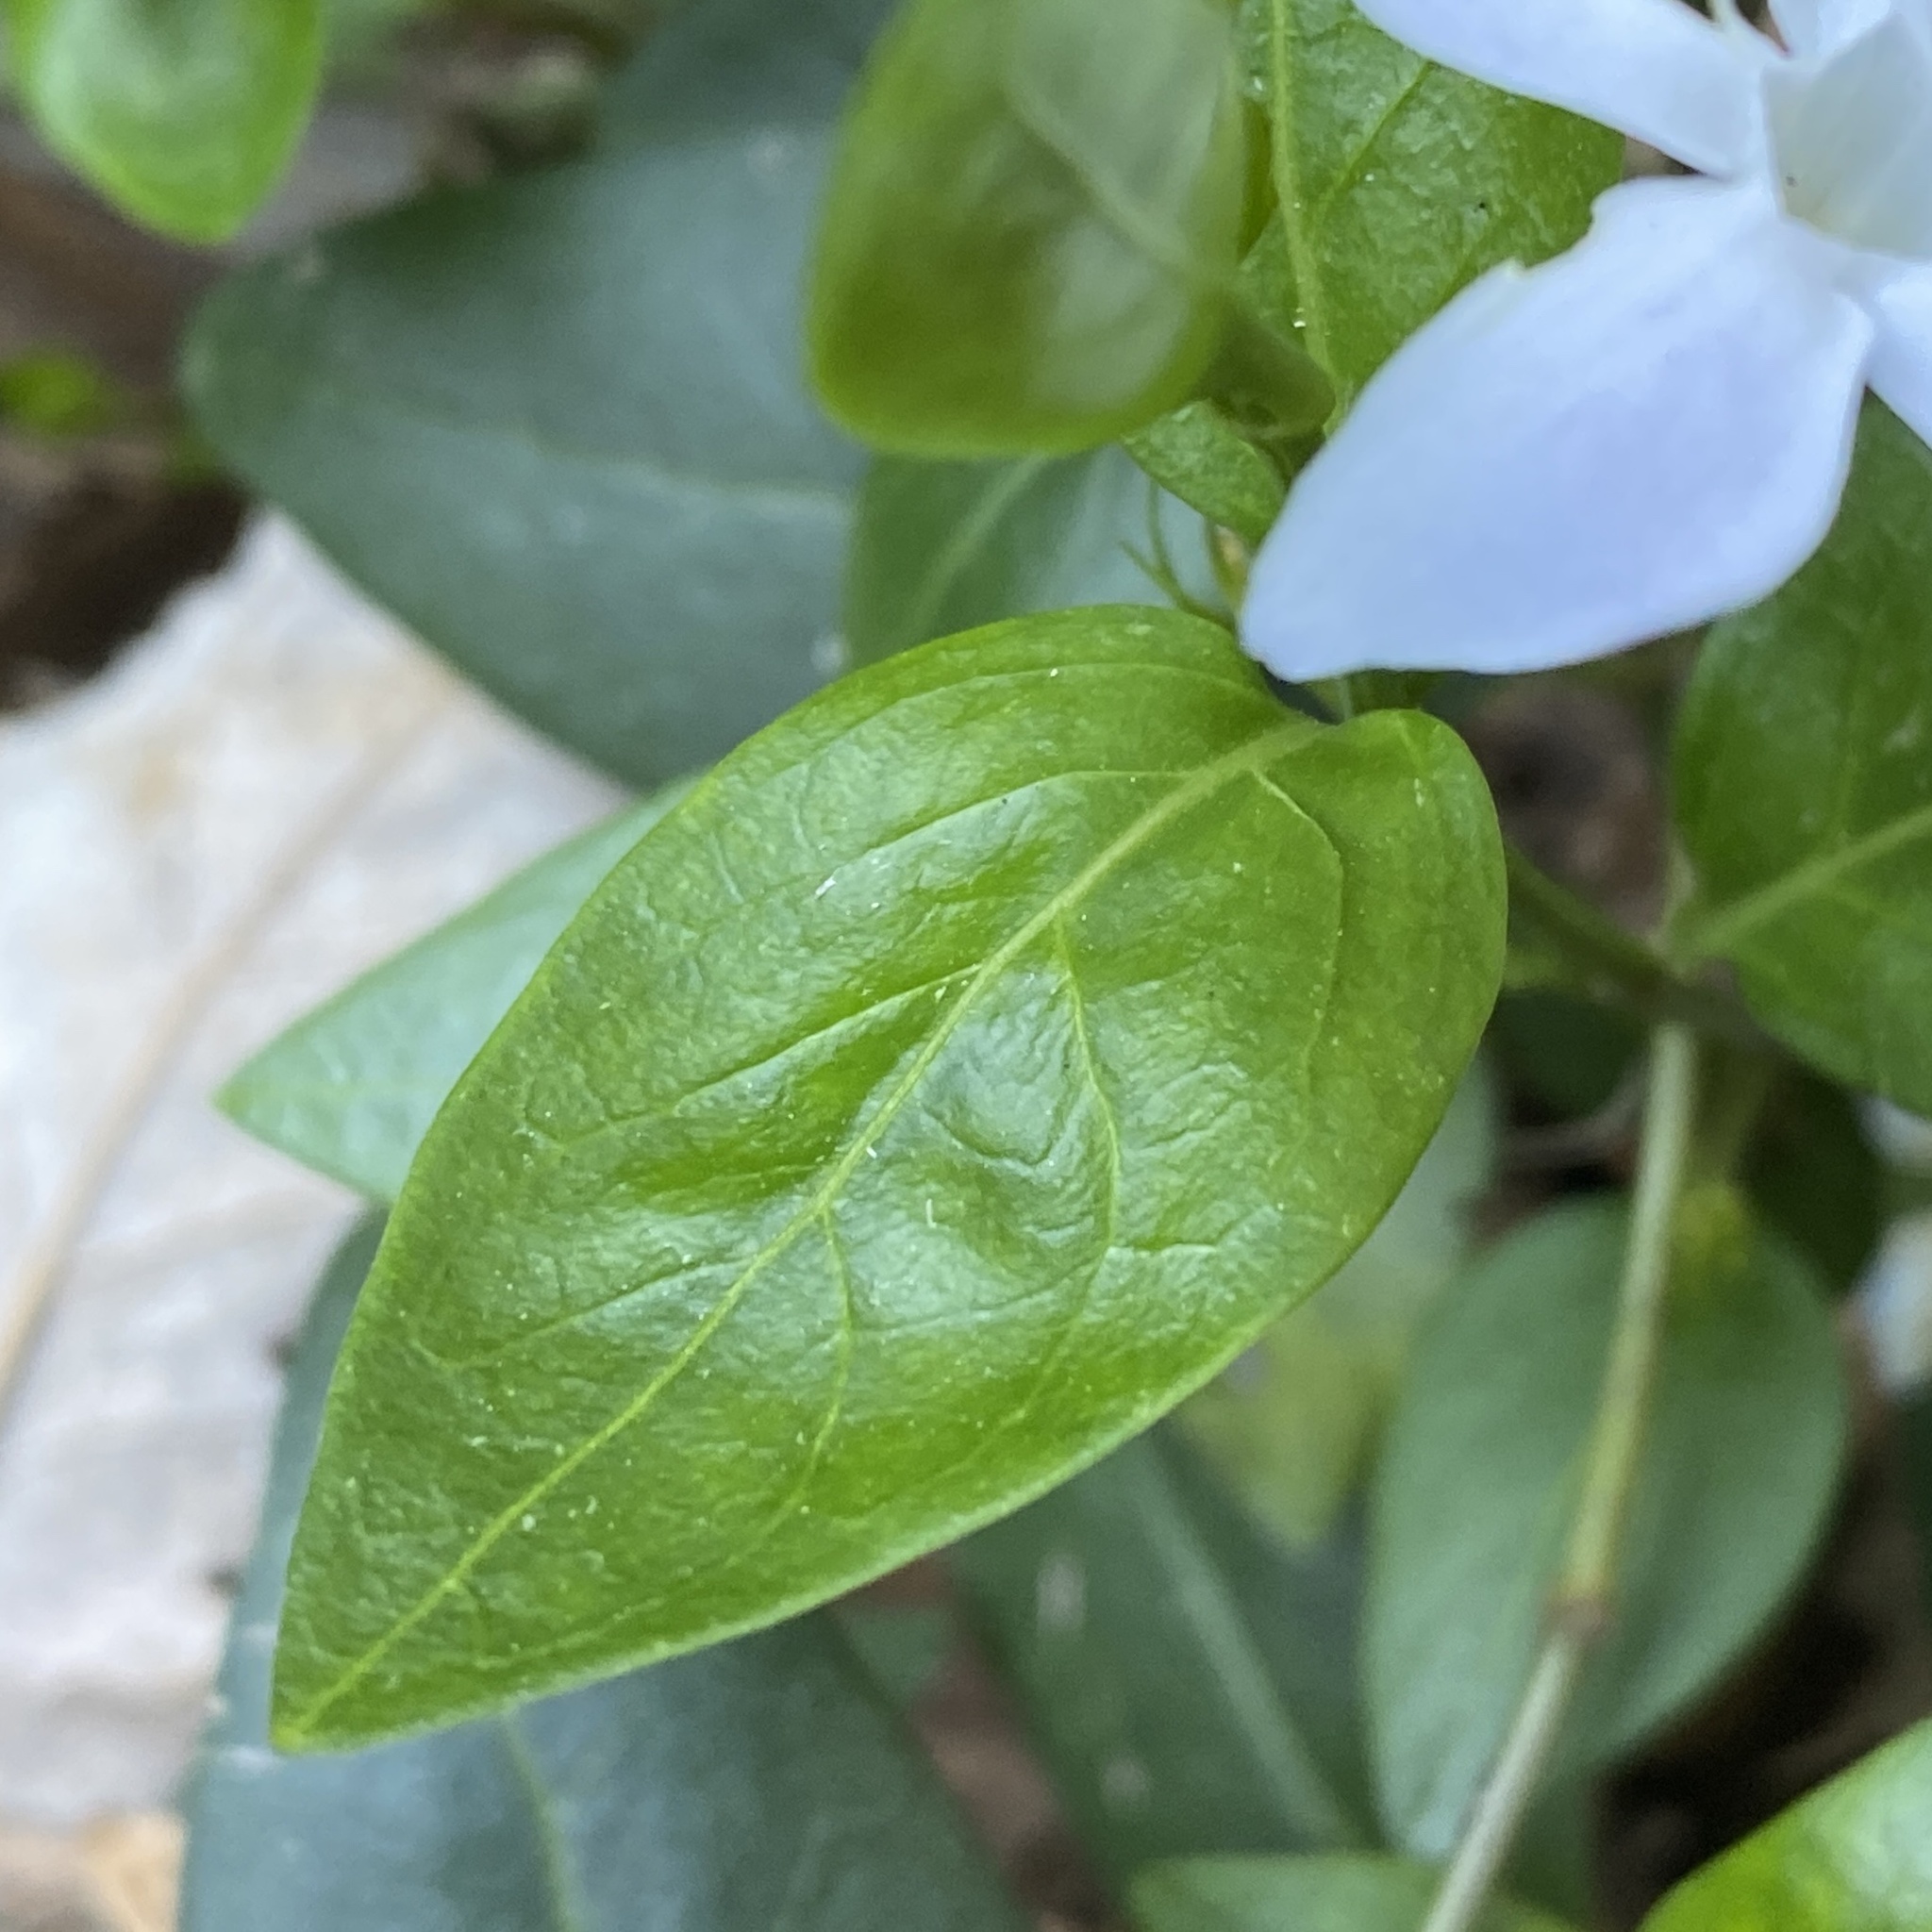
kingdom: Plantae
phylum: Tracheophyta
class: Magnoliopsida
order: Gentianales
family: Apocynaceae
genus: Vinca
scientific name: Vinca difformis
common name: Intermediate periwinkle
